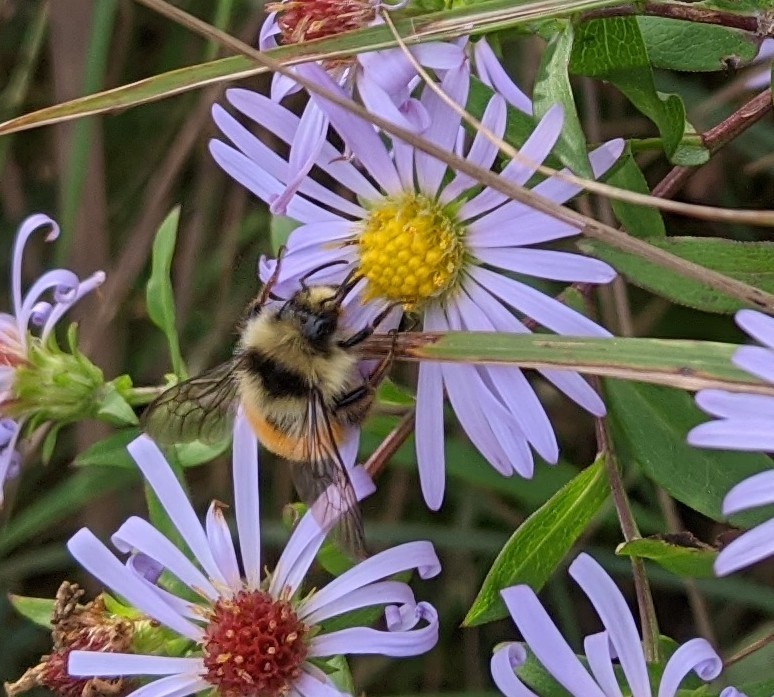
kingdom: Animalia
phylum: Arthropoda
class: Insecta
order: Hymenoptera
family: Apidae
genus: Bombus
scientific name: Bombus ternarius
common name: Tri-colored bumble bee
